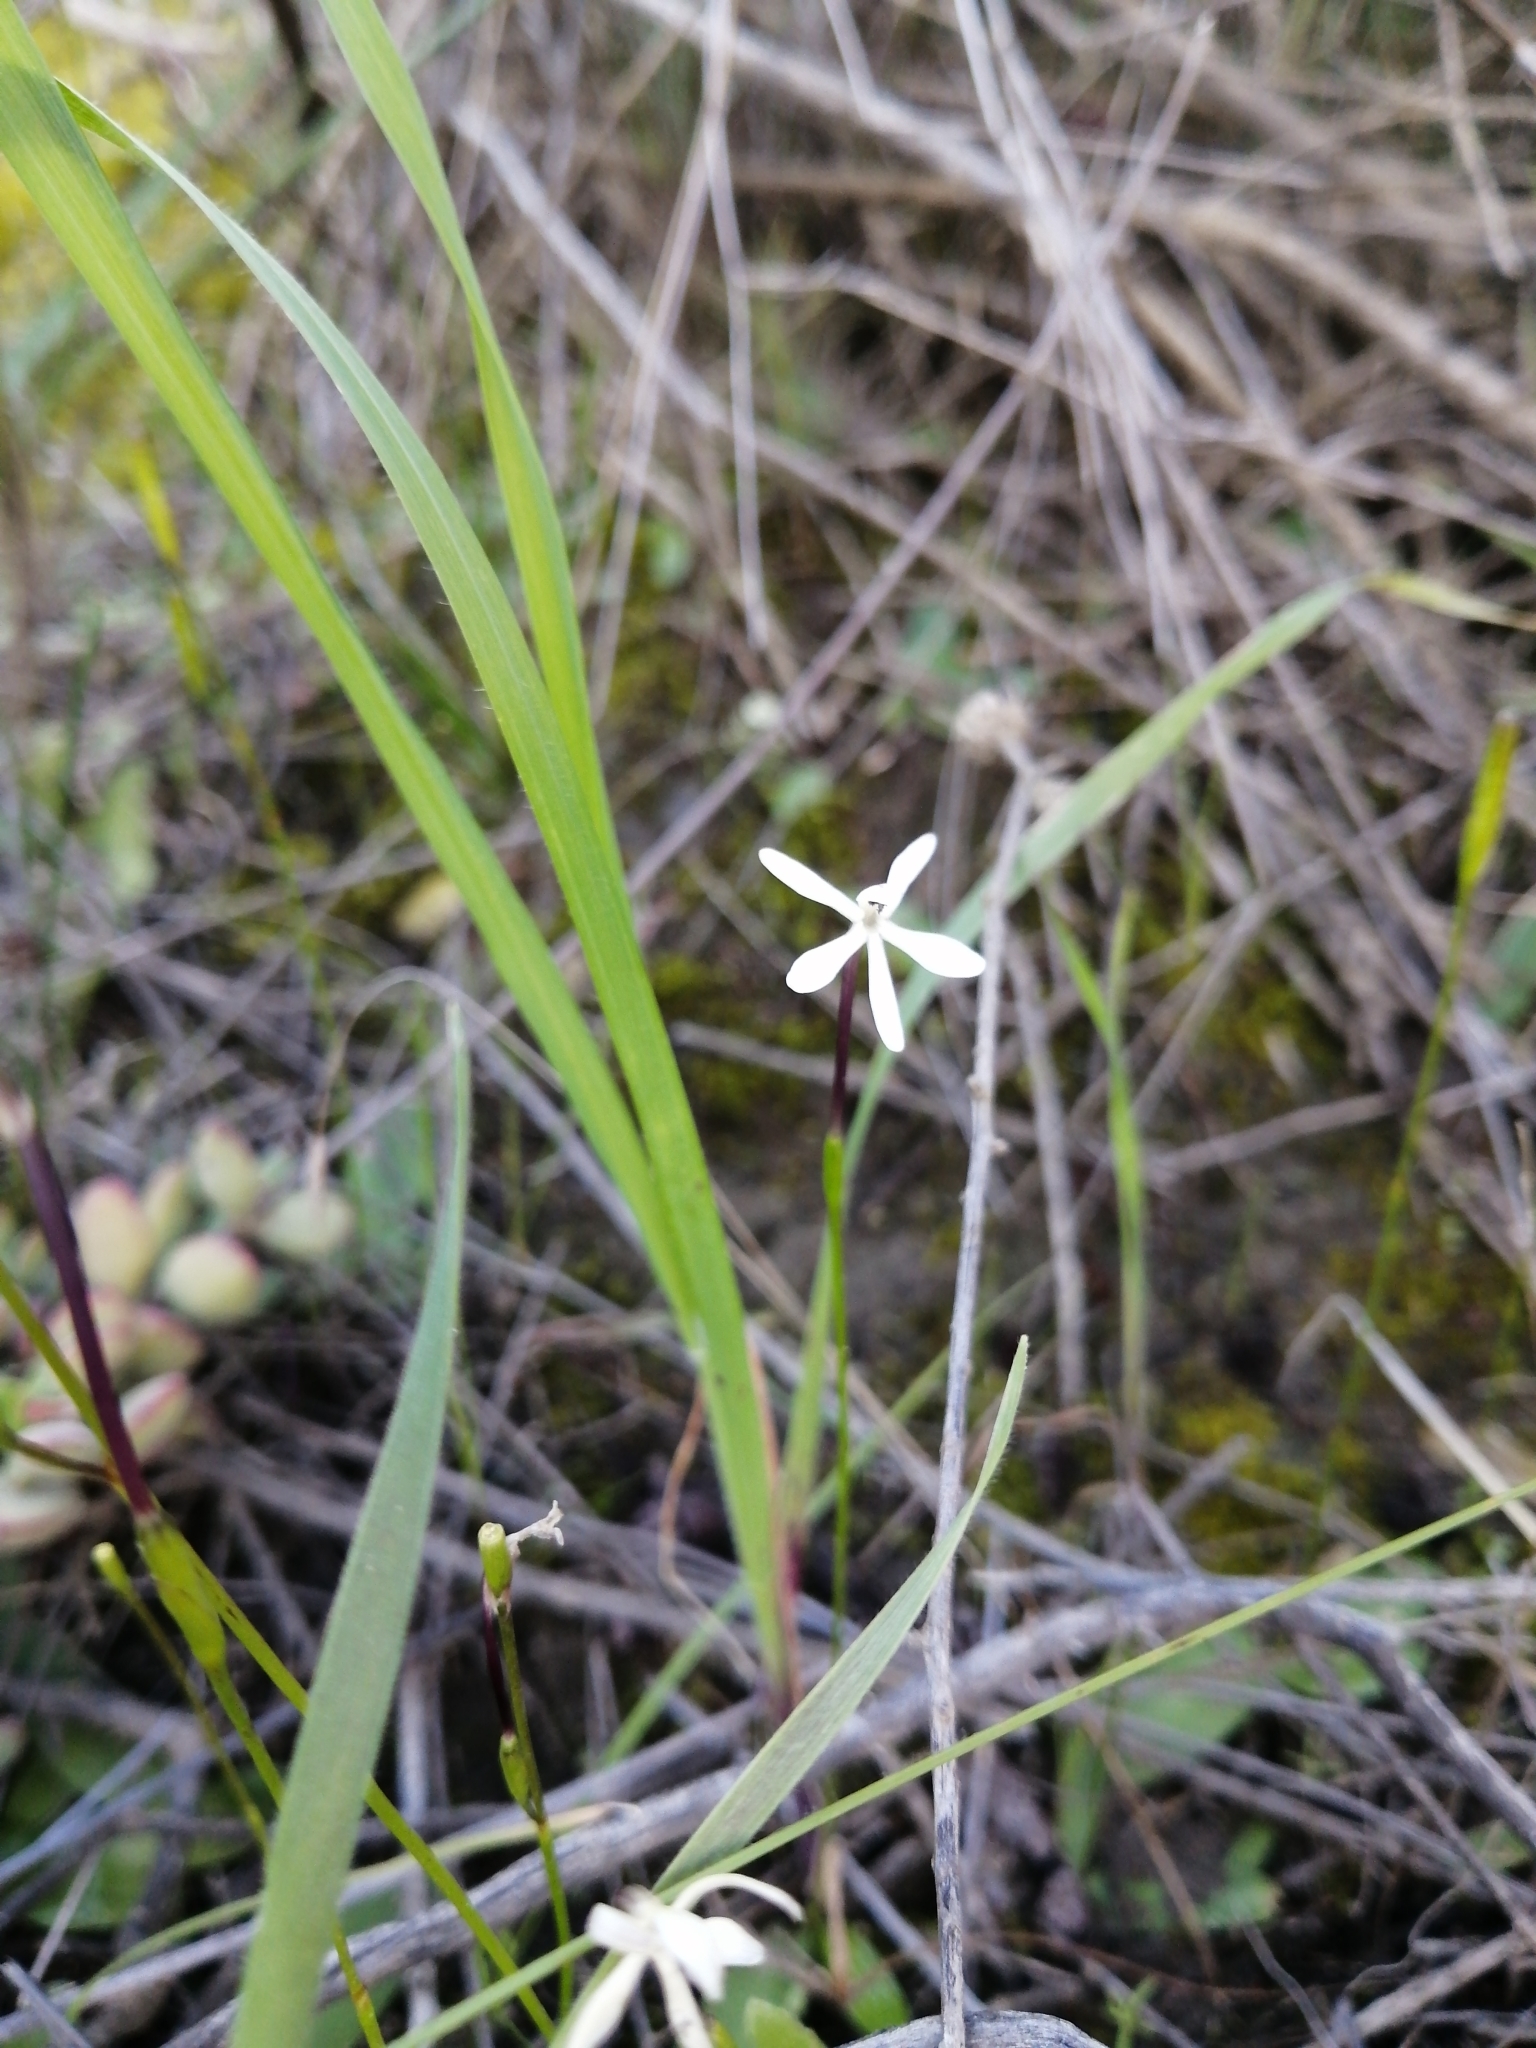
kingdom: Plantae
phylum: Tracheophyta
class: Liliopsida
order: Asparagales
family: Iridaceae
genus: Xenoscapa
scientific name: Xenoscapa fistulosa
